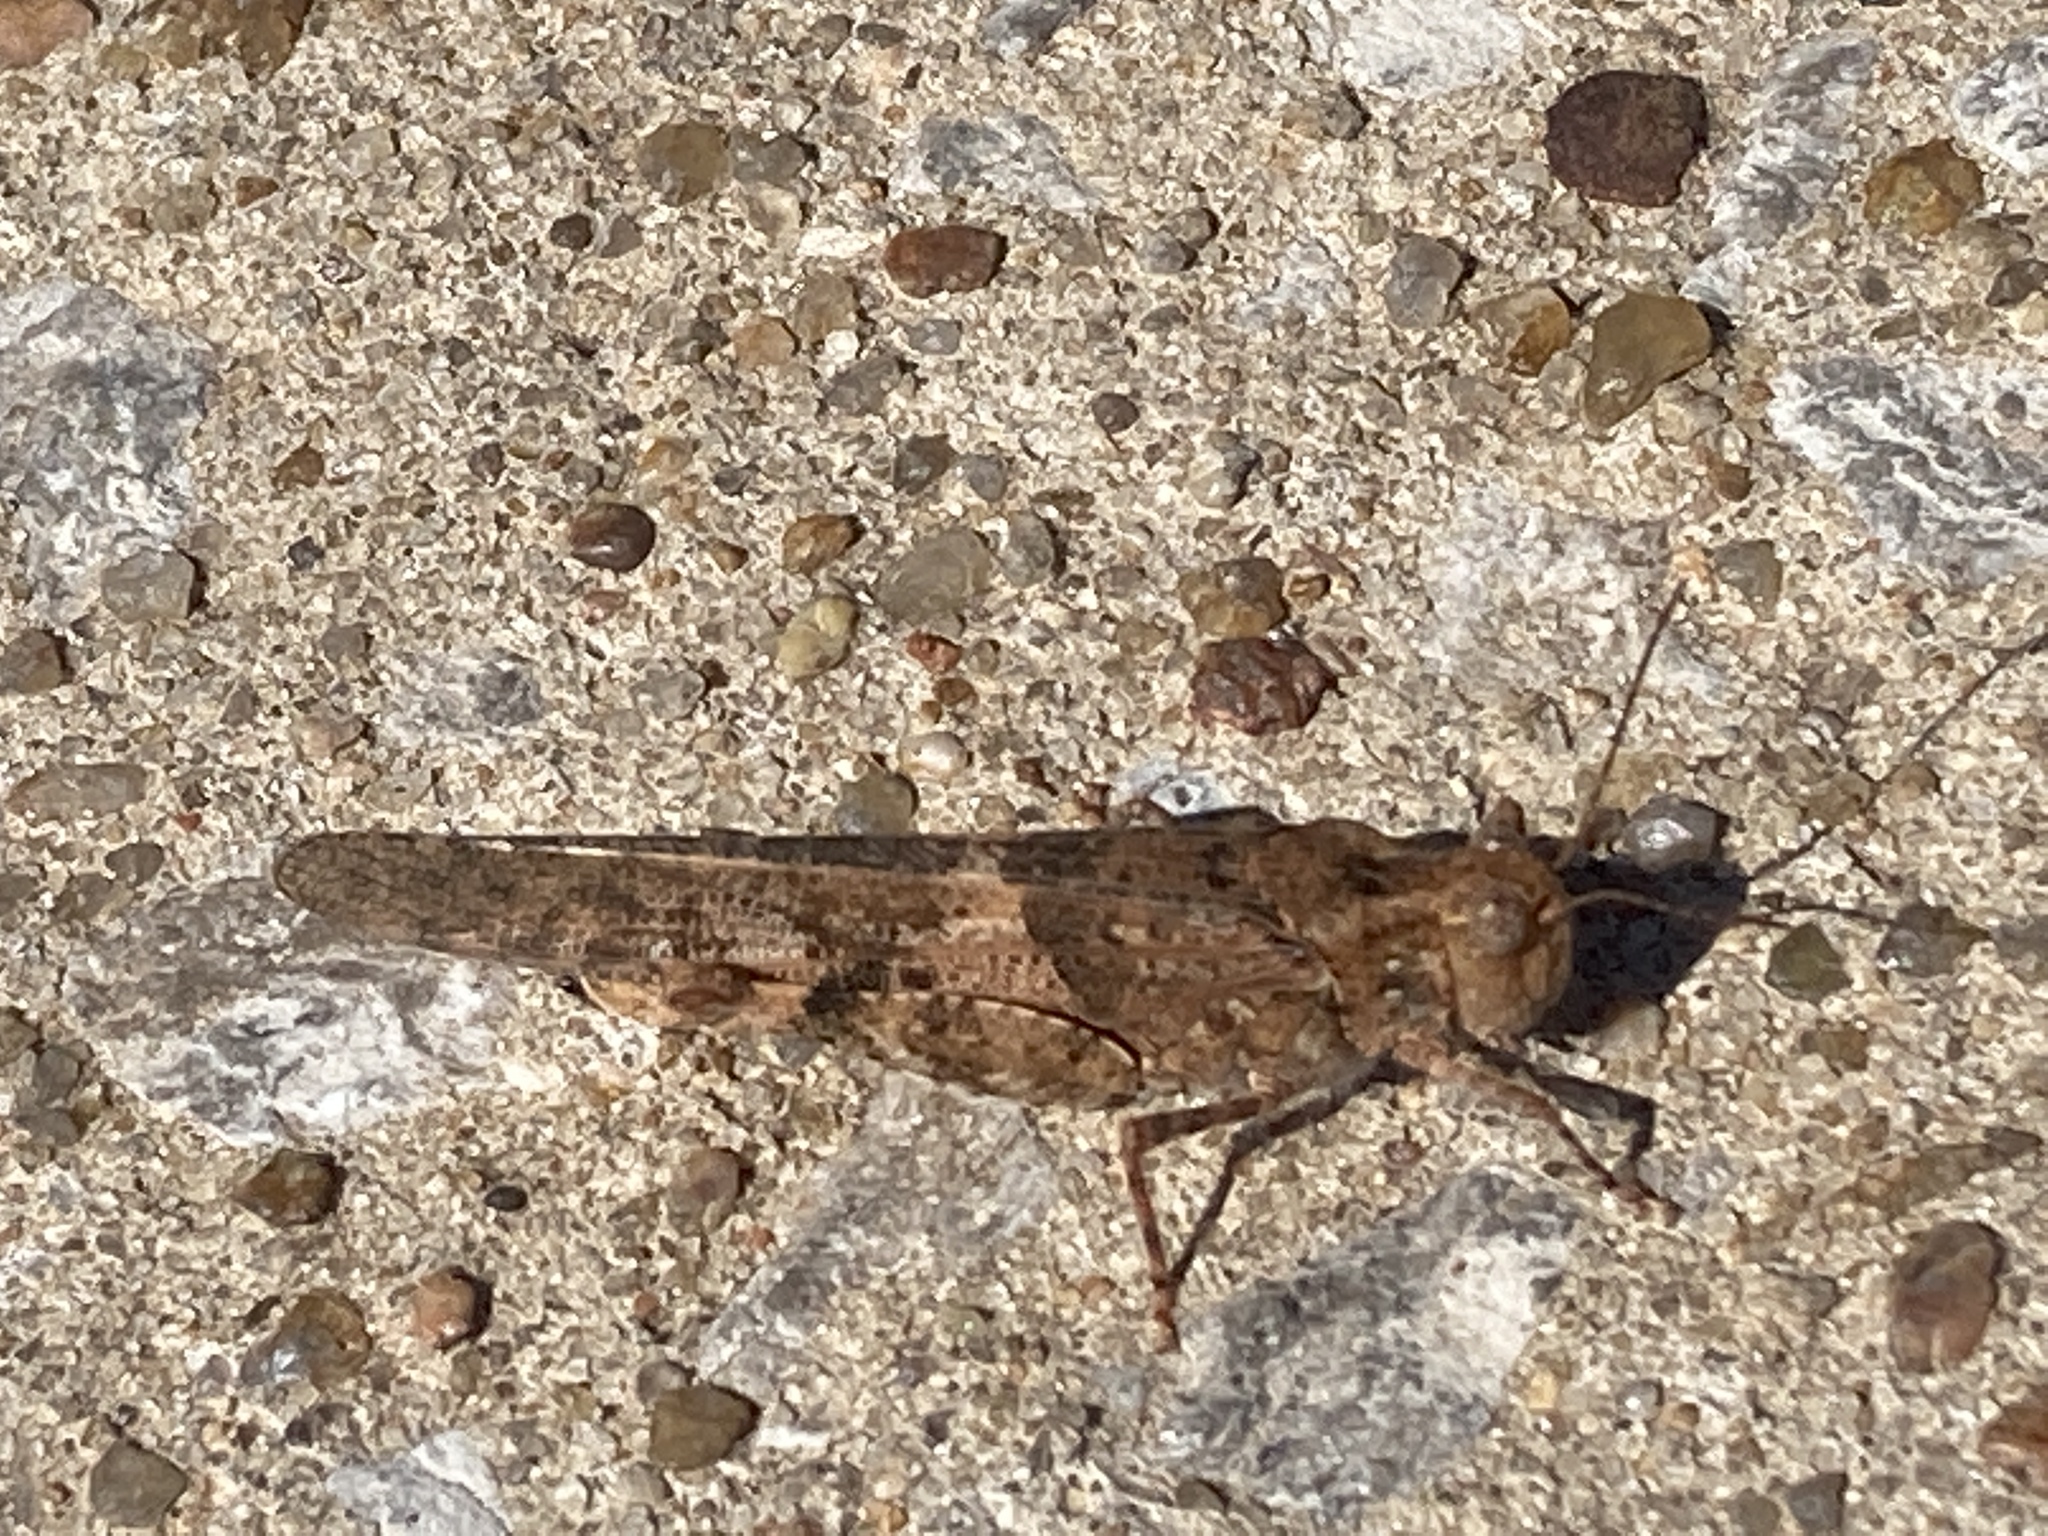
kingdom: Animalia
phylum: Arthropoda
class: Insecta
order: Orthoptera
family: Acrididae
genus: Trimerotropis
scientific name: Trimerotropis pallidipennis
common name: Pallid-winged grasshopper
